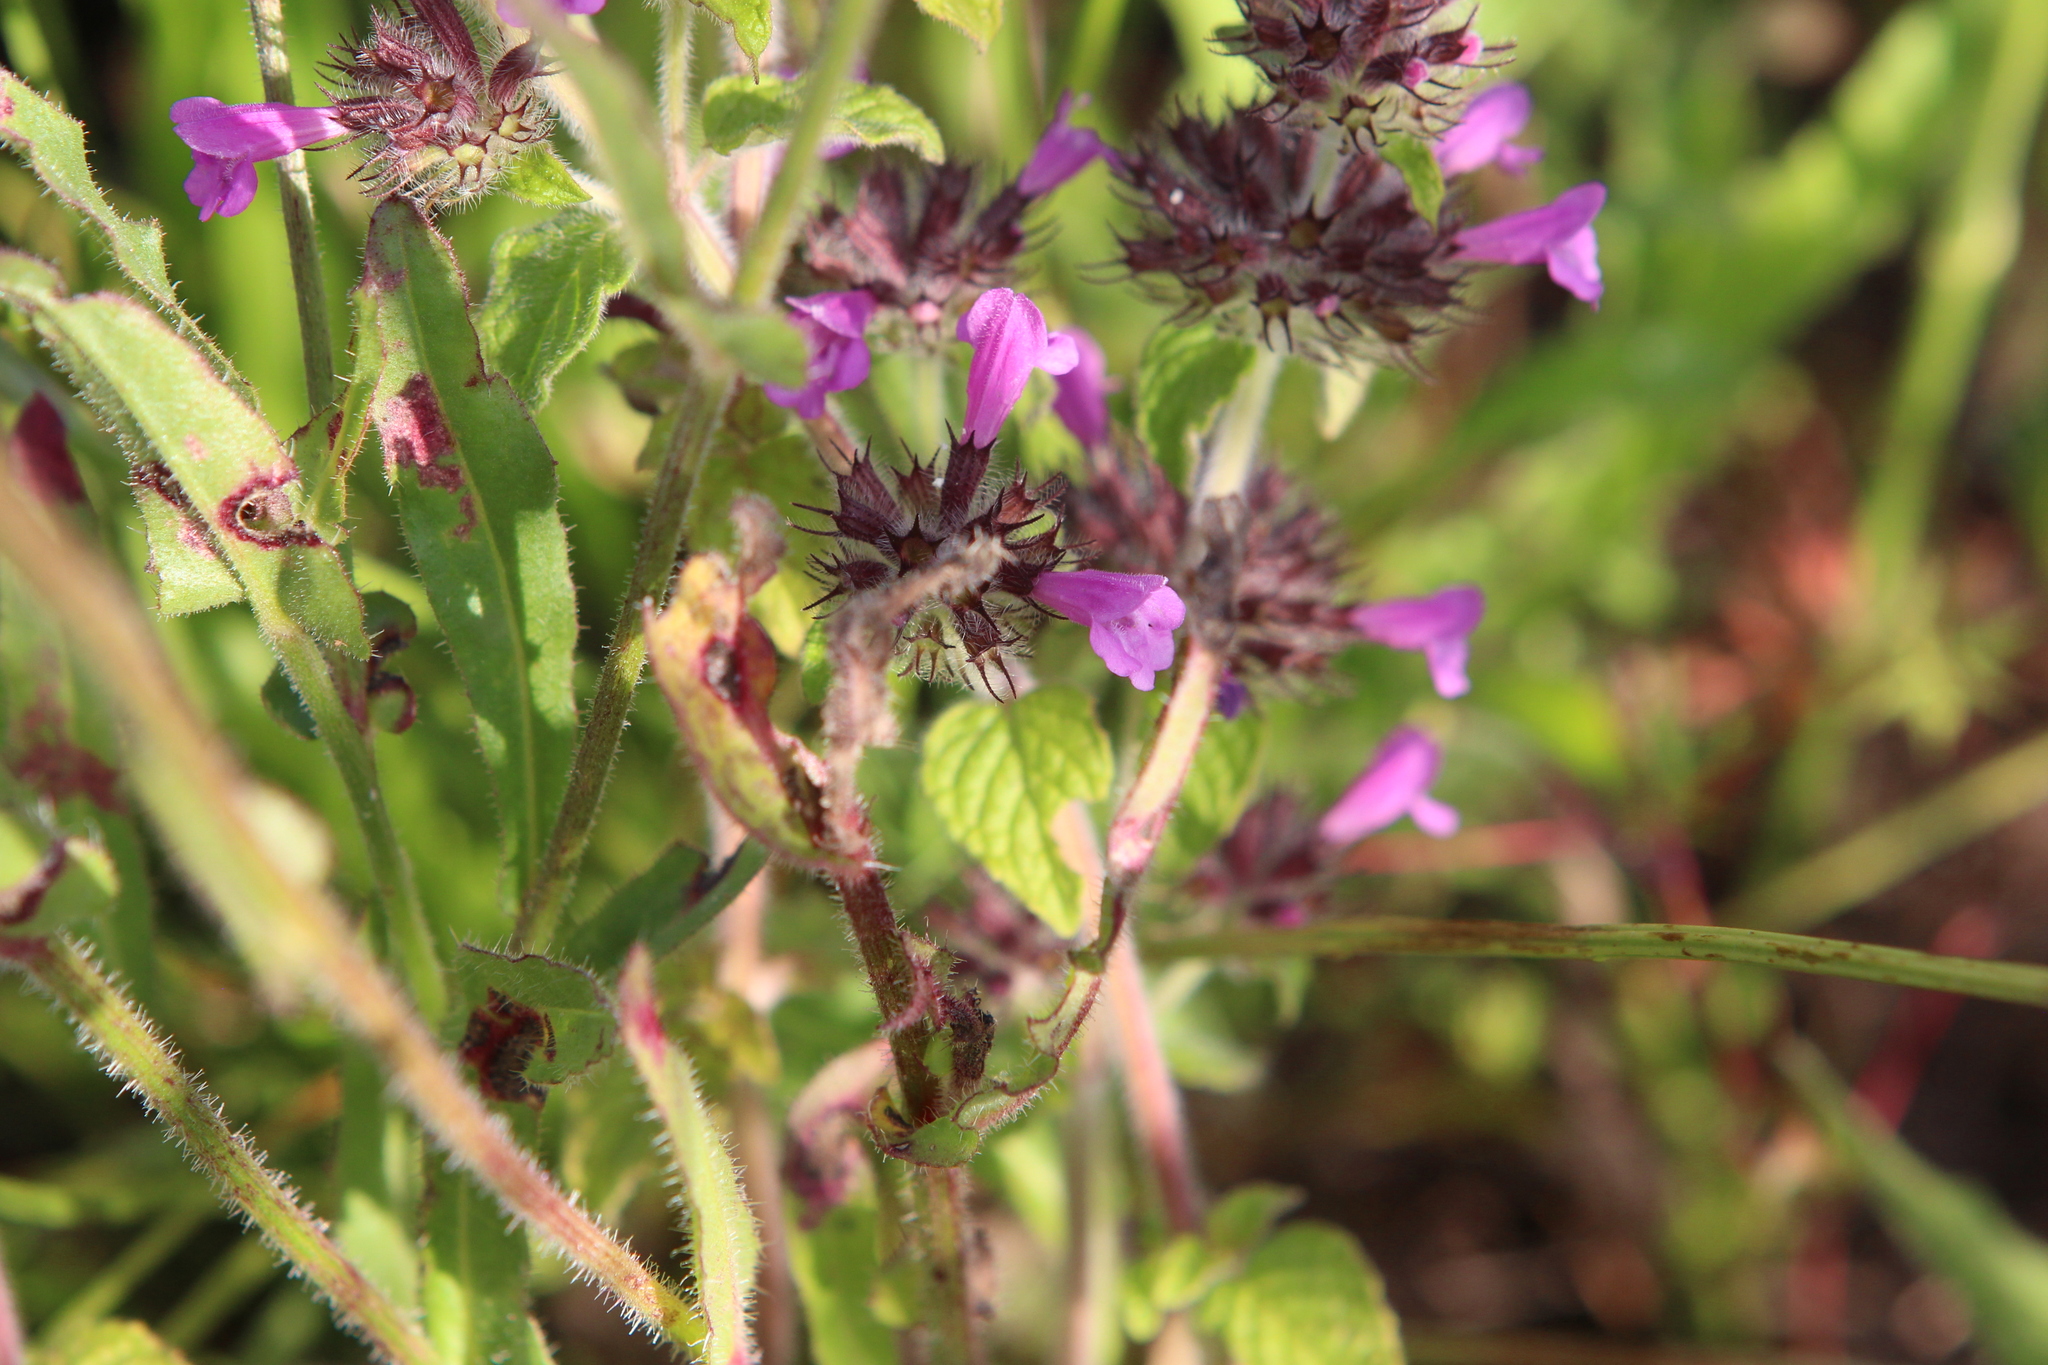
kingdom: Plantae
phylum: Tracheophyta
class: Magnoliopsida
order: Lamiales
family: Lamiaceae
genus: Clinopodium
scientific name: Clinopodium vulgare
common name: Wild basil
